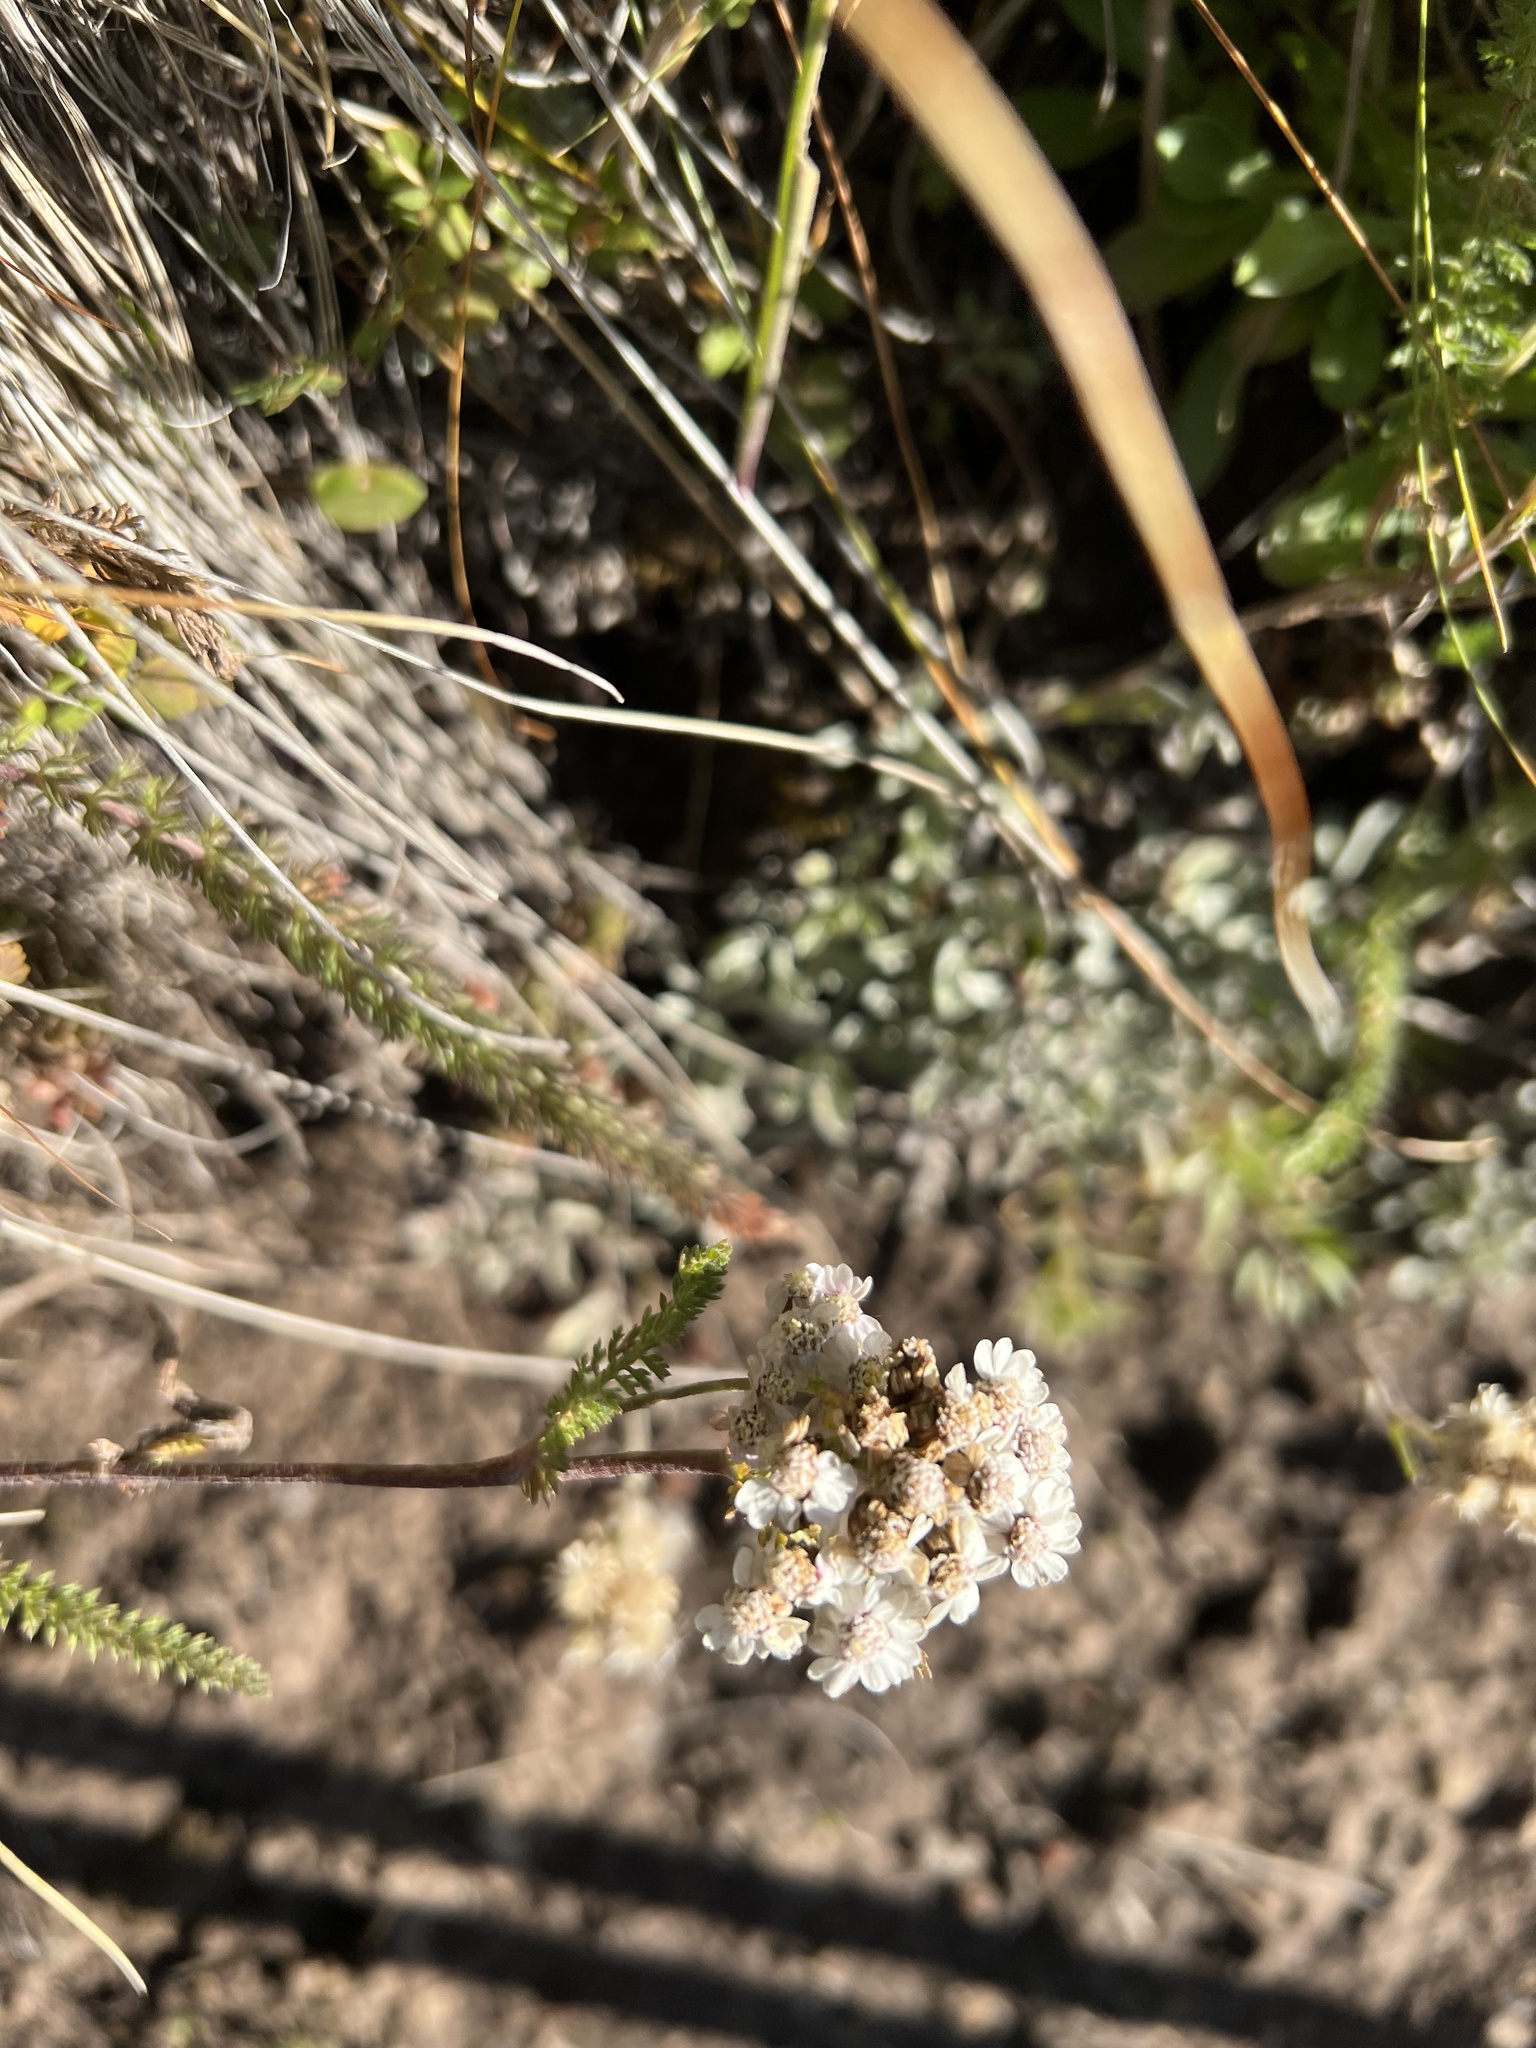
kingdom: Plantae
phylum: Tracheophyta
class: Magnoliopsida
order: Asterales
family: Asteraceae
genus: Achillea
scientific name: Achillea millefolium
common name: Yarrow
